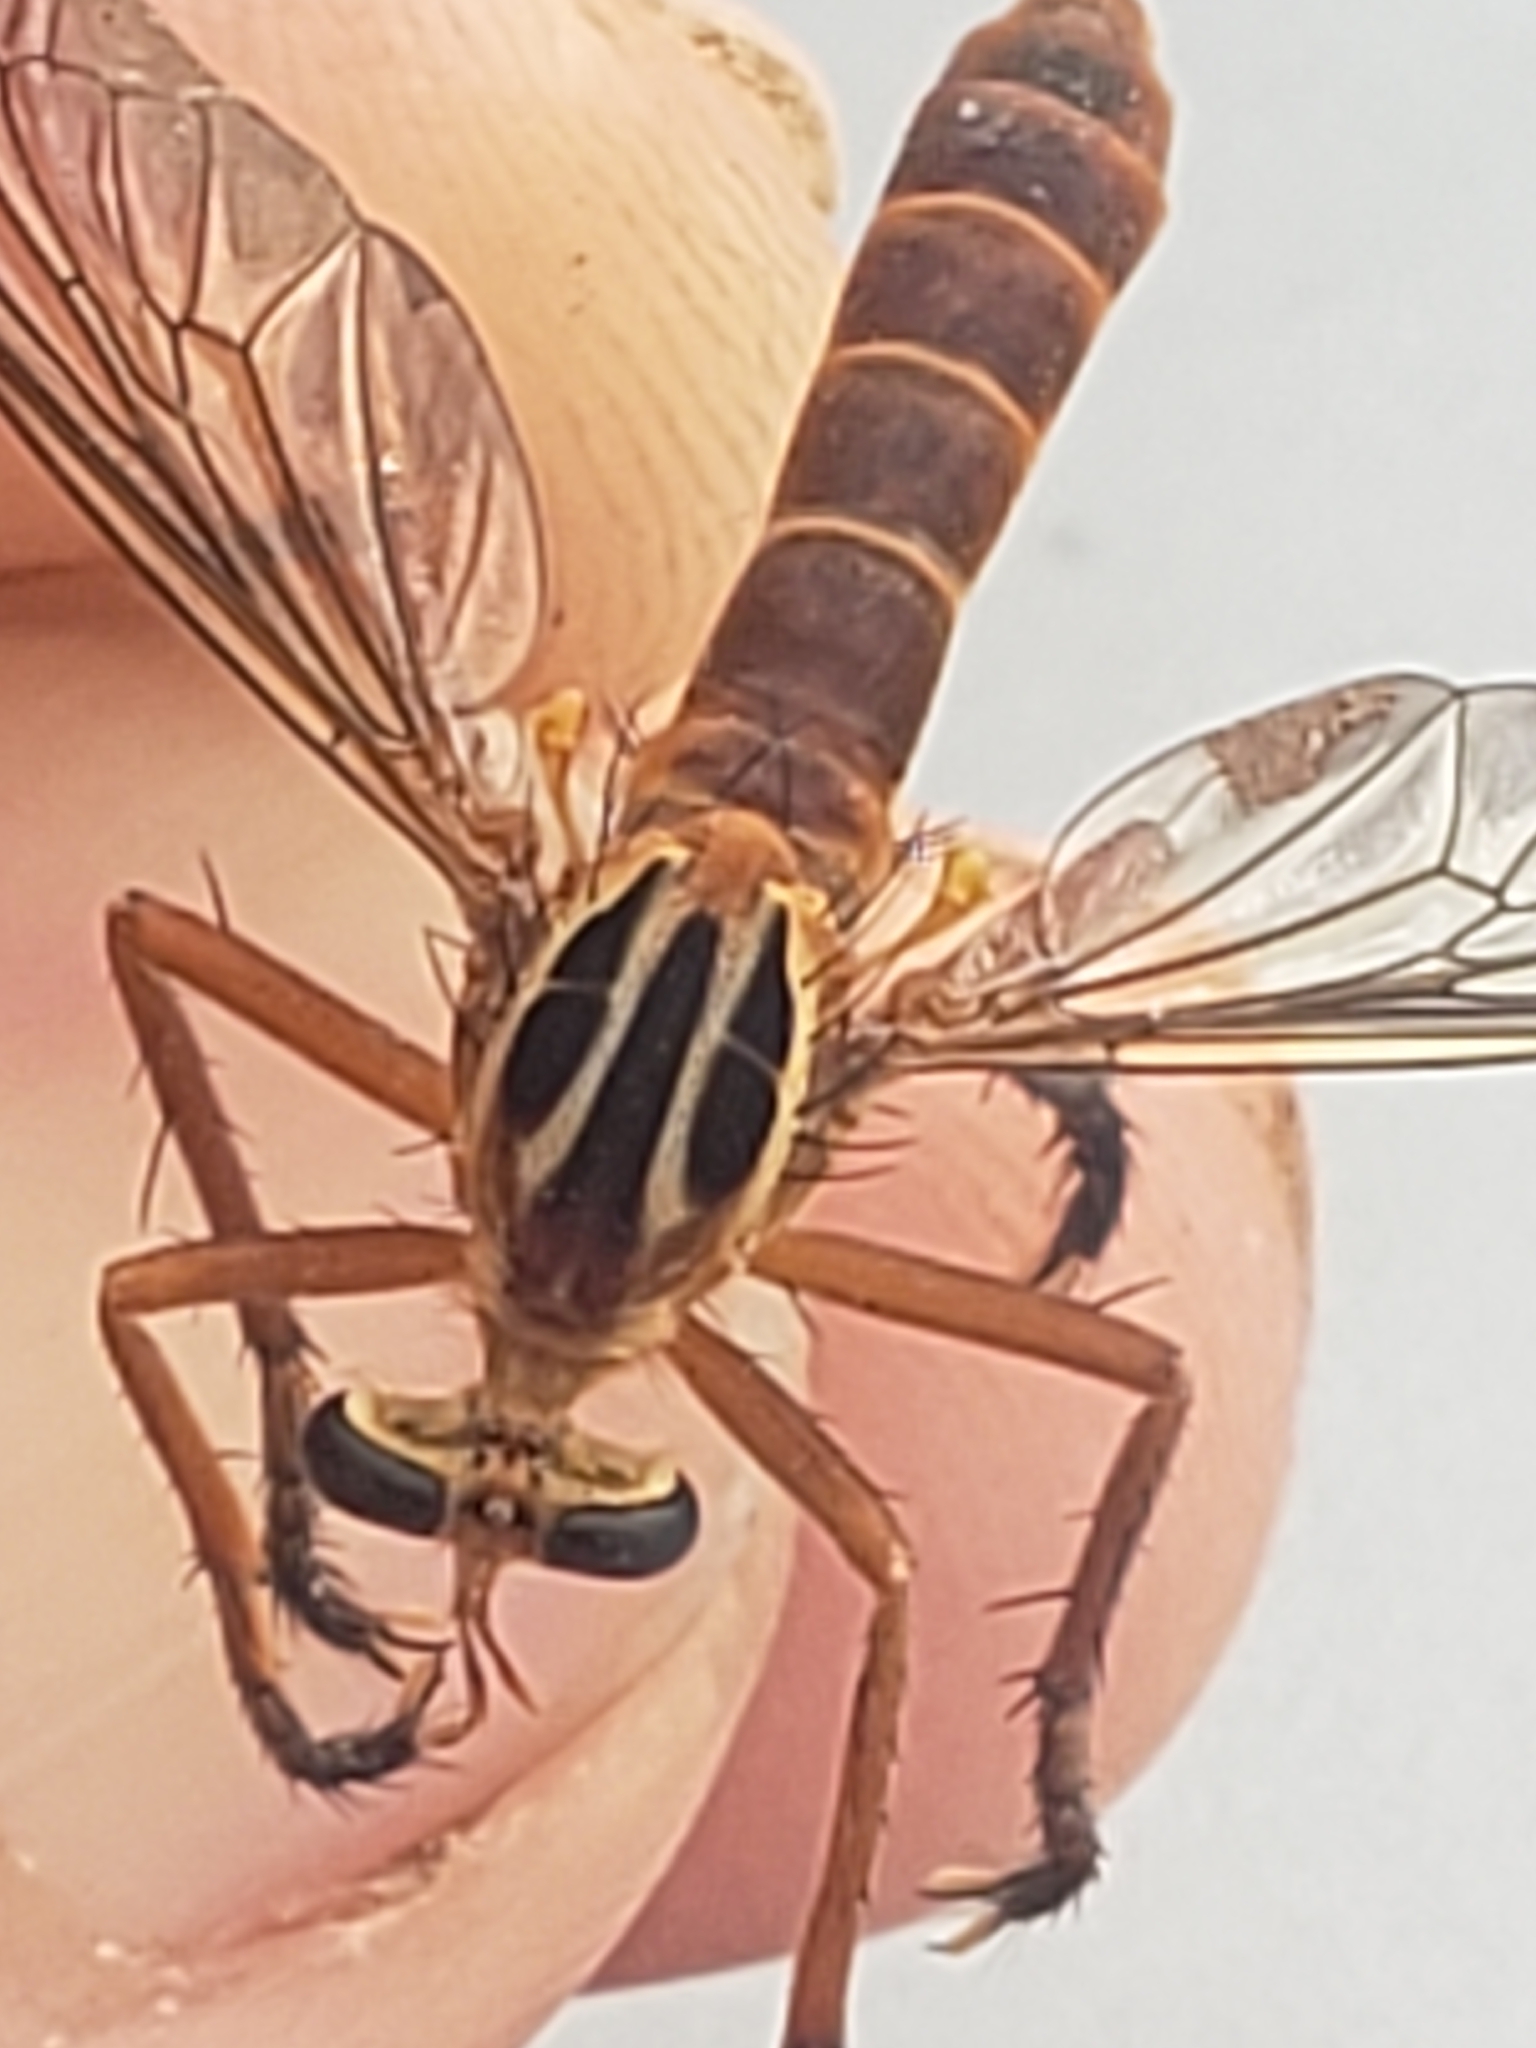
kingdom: Animalia
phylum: Arthropoda
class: Insecta
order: Diptera
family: Asilidae
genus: Diogmites
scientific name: Diogmites neoternatus
